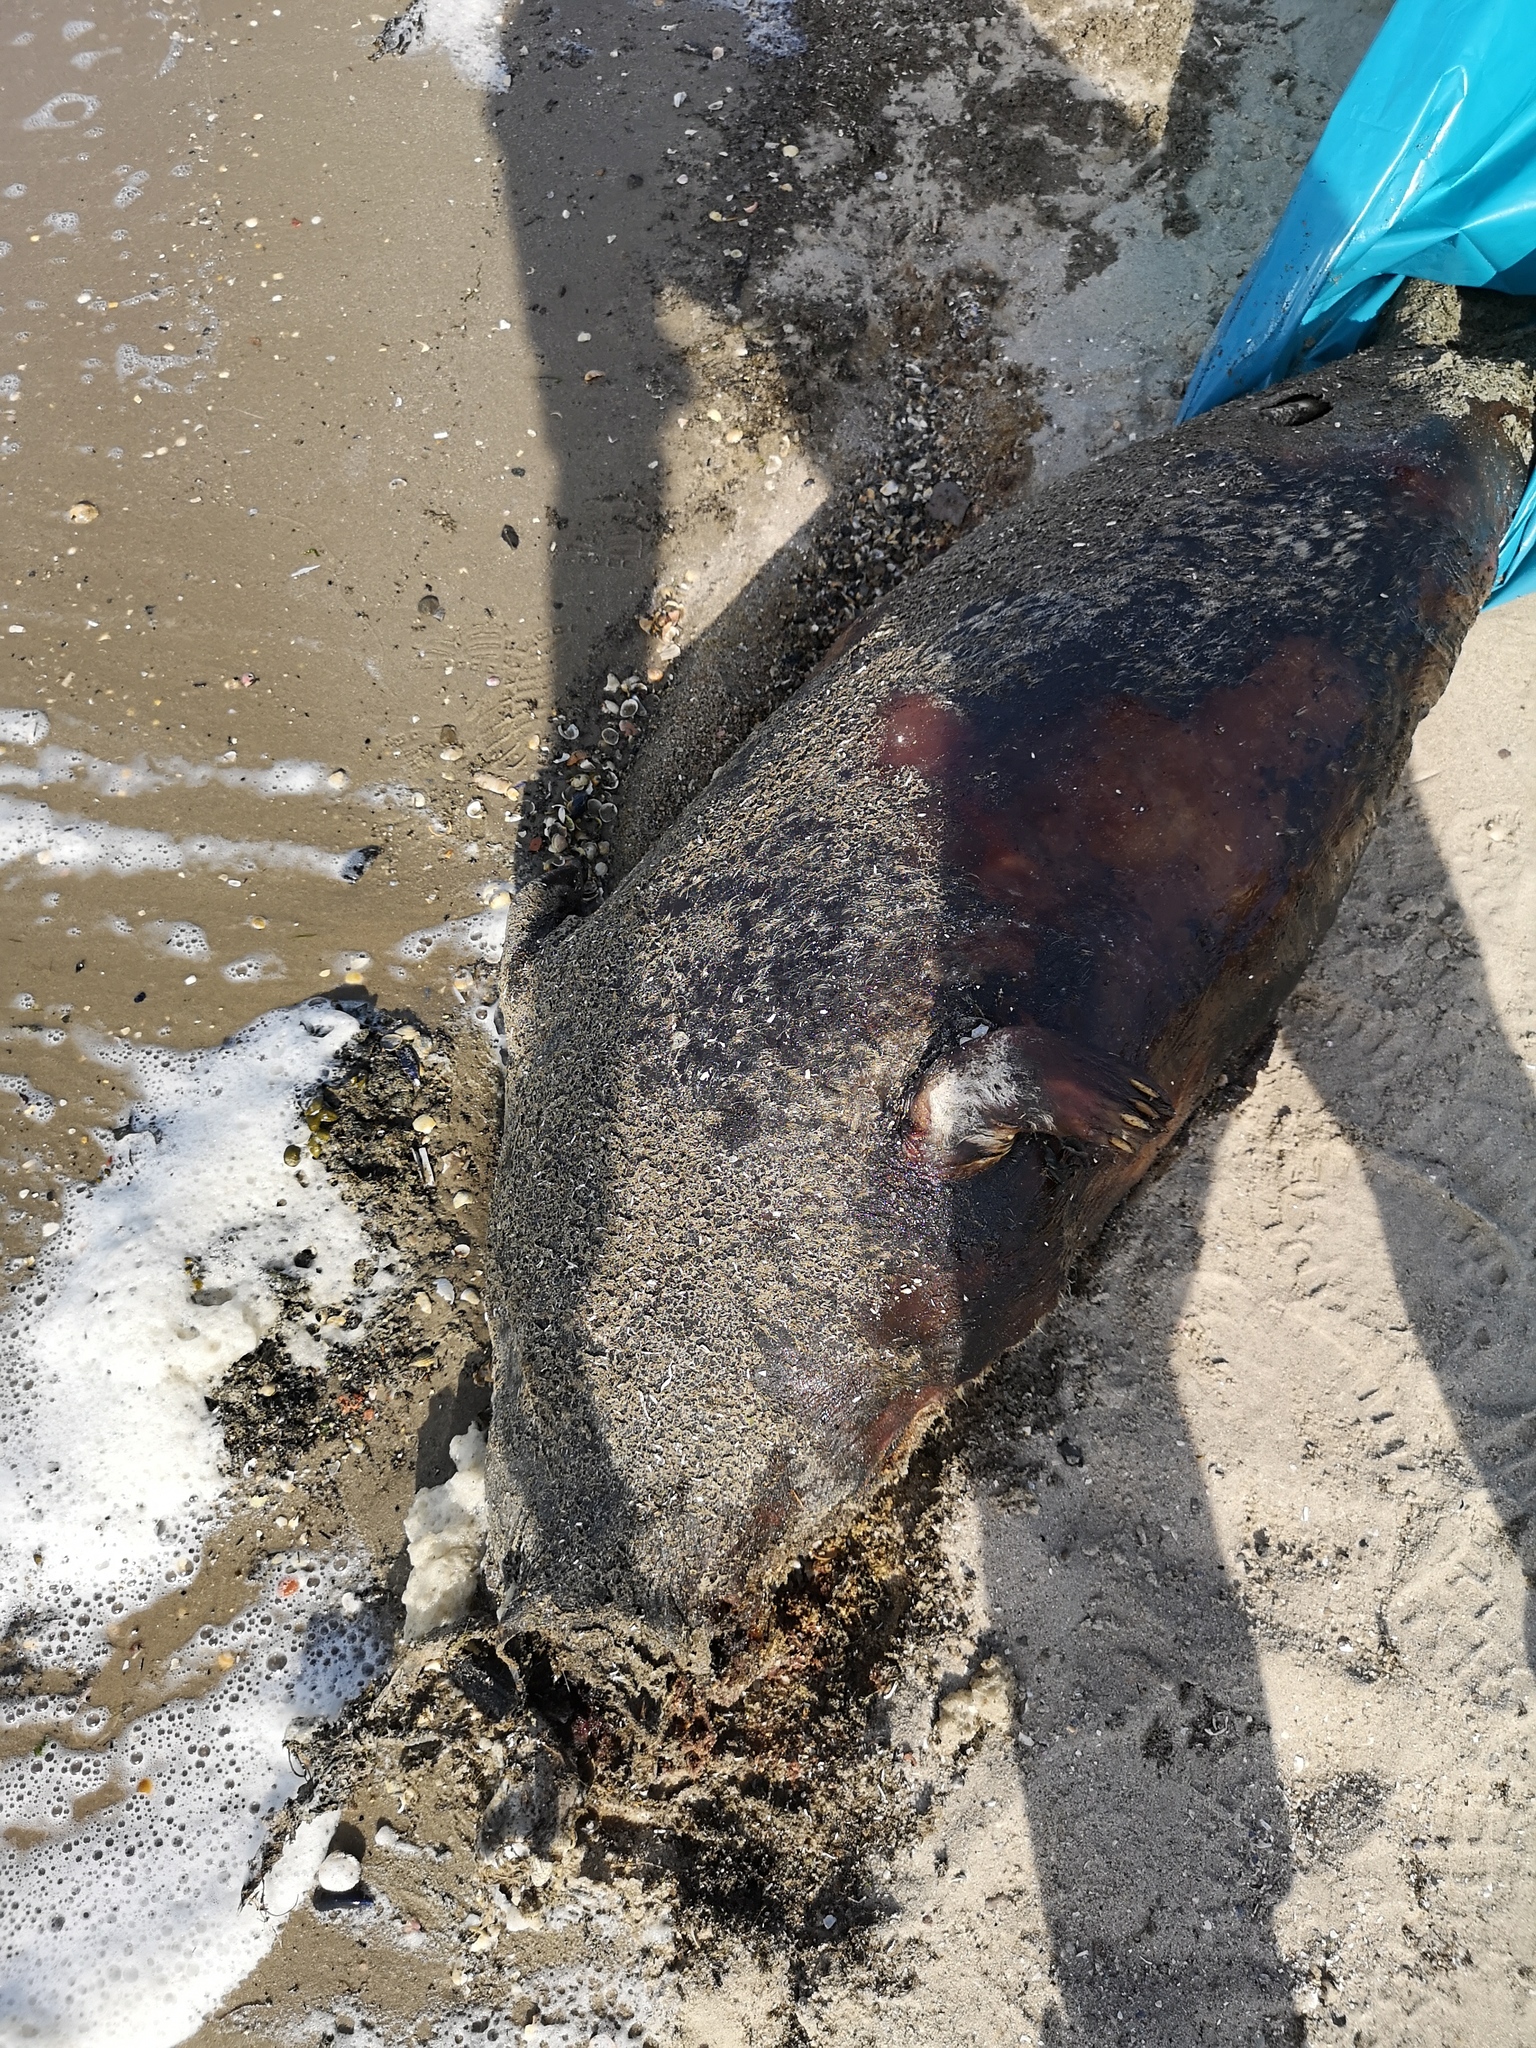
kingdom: Animalia
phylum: Chordata
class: Mammalia
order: Carnivora
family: Phocidae
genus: Phoca
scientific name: Phoca vitulina
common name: Harbor seal
